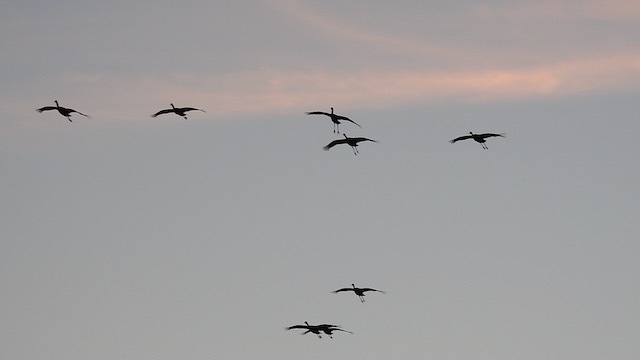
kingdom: Animalia
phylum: Chordata
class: Aves
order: Gruiformes
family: Gruidae
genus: Grus
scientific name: Grus canadensis
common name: Sandhill crane
